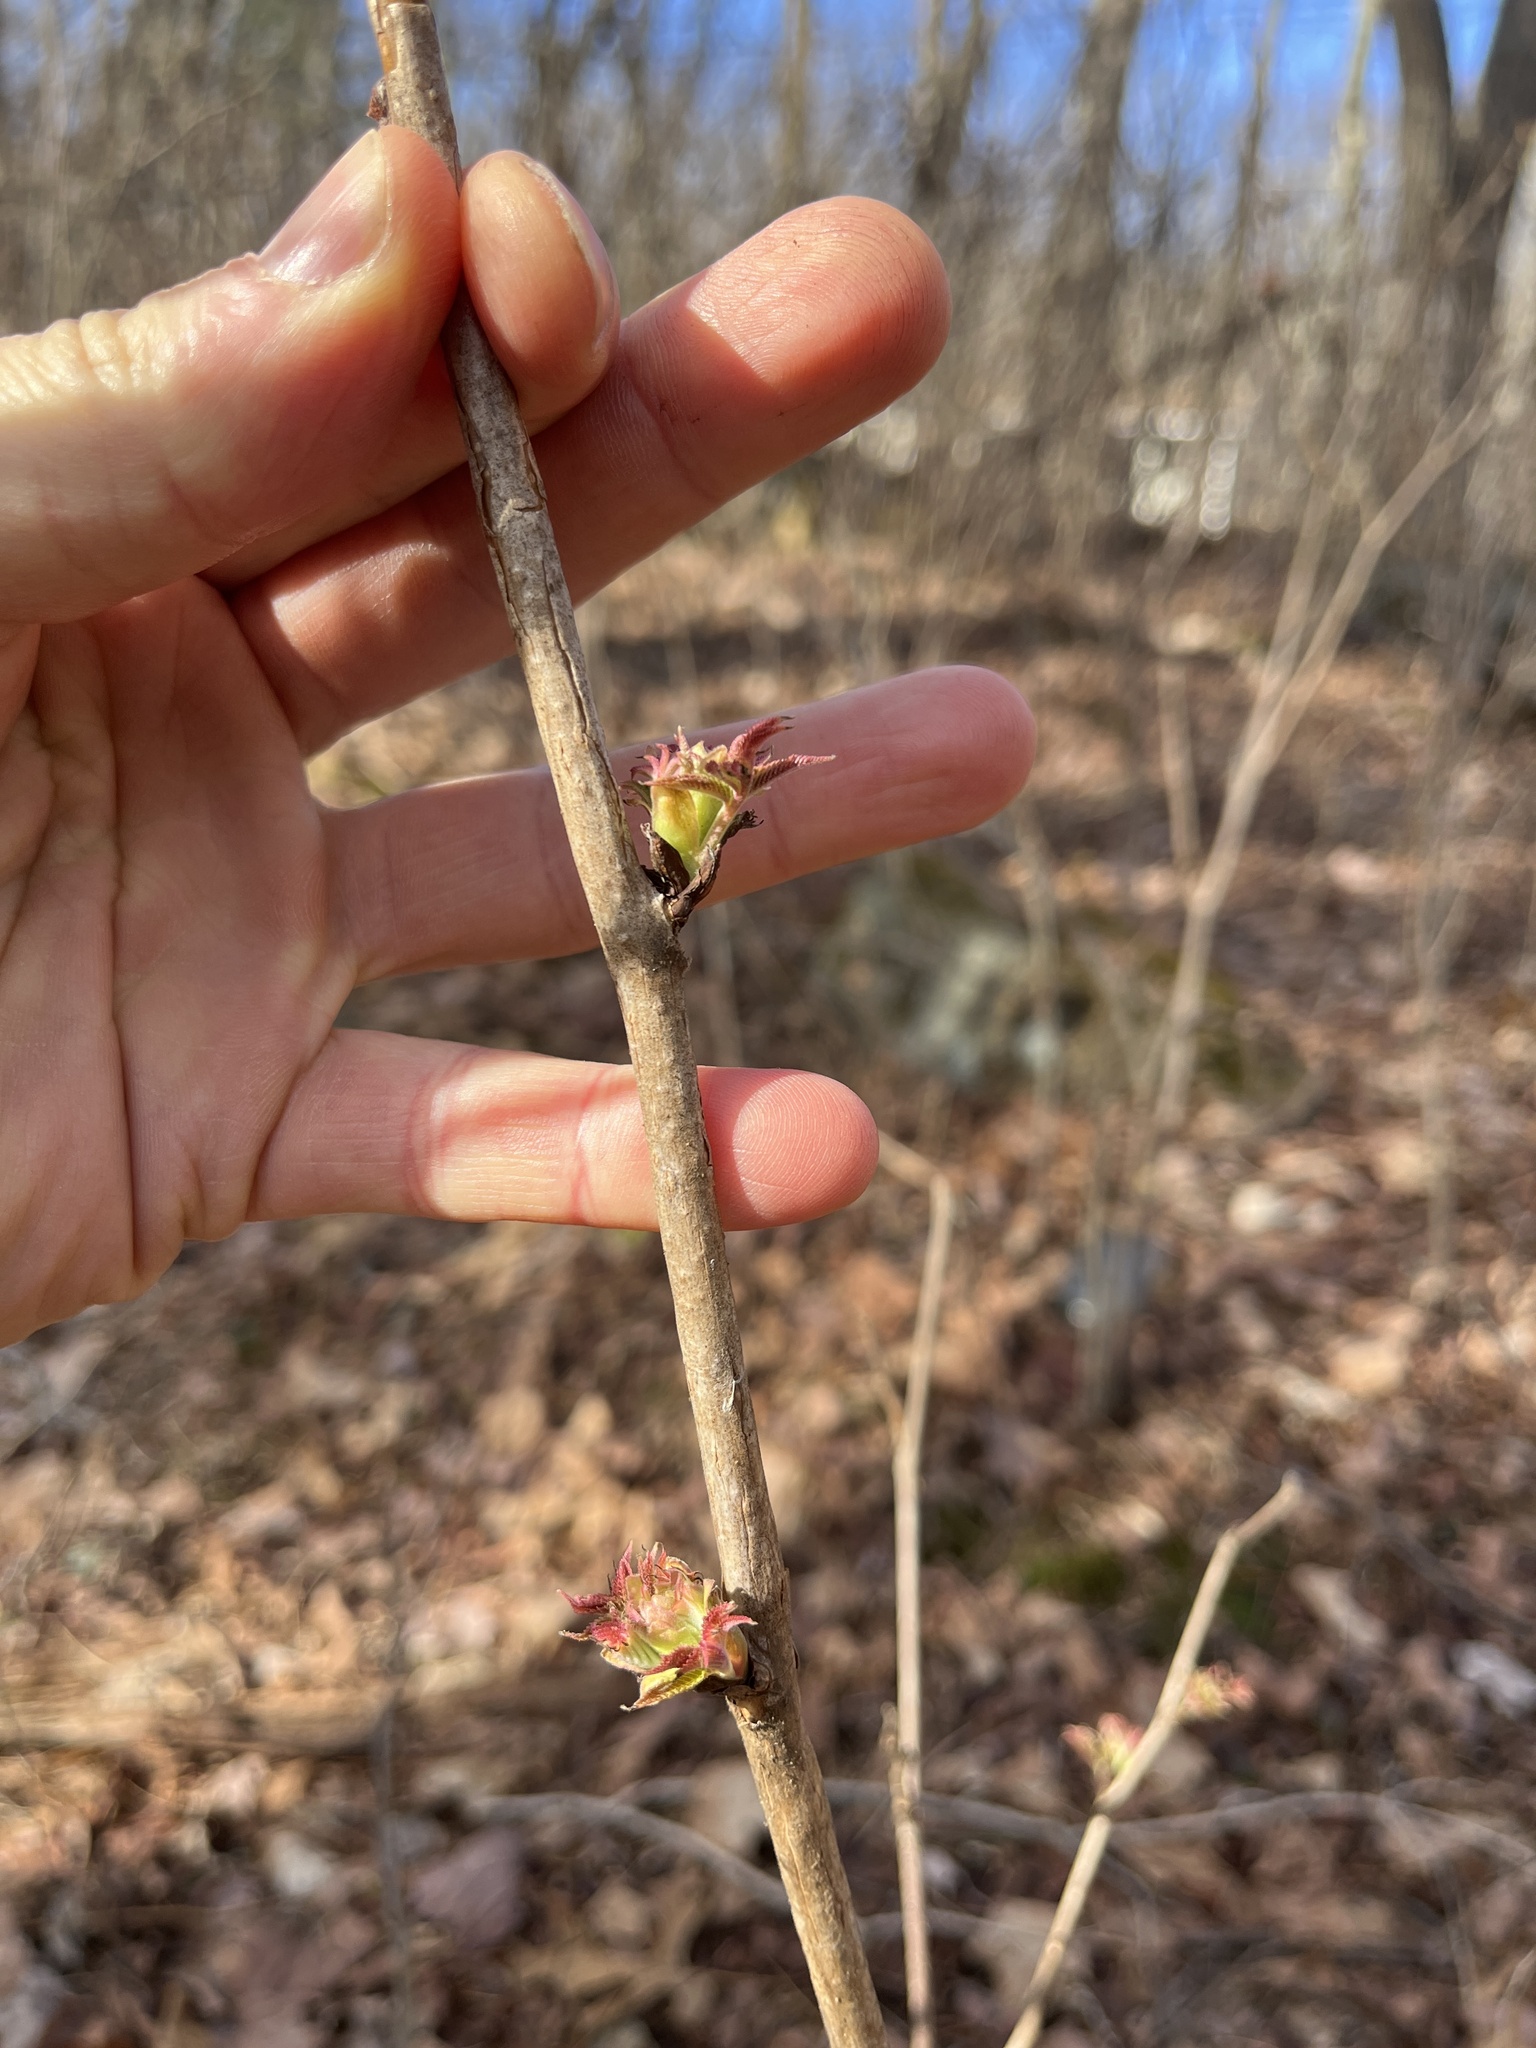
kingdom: Plantae
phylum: Tracheophyta
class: Magnoliopsida
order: Rosales
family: Rosaceae
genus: Sorbaria
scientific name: Sorbaria sorbifolia
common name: False spiraea
